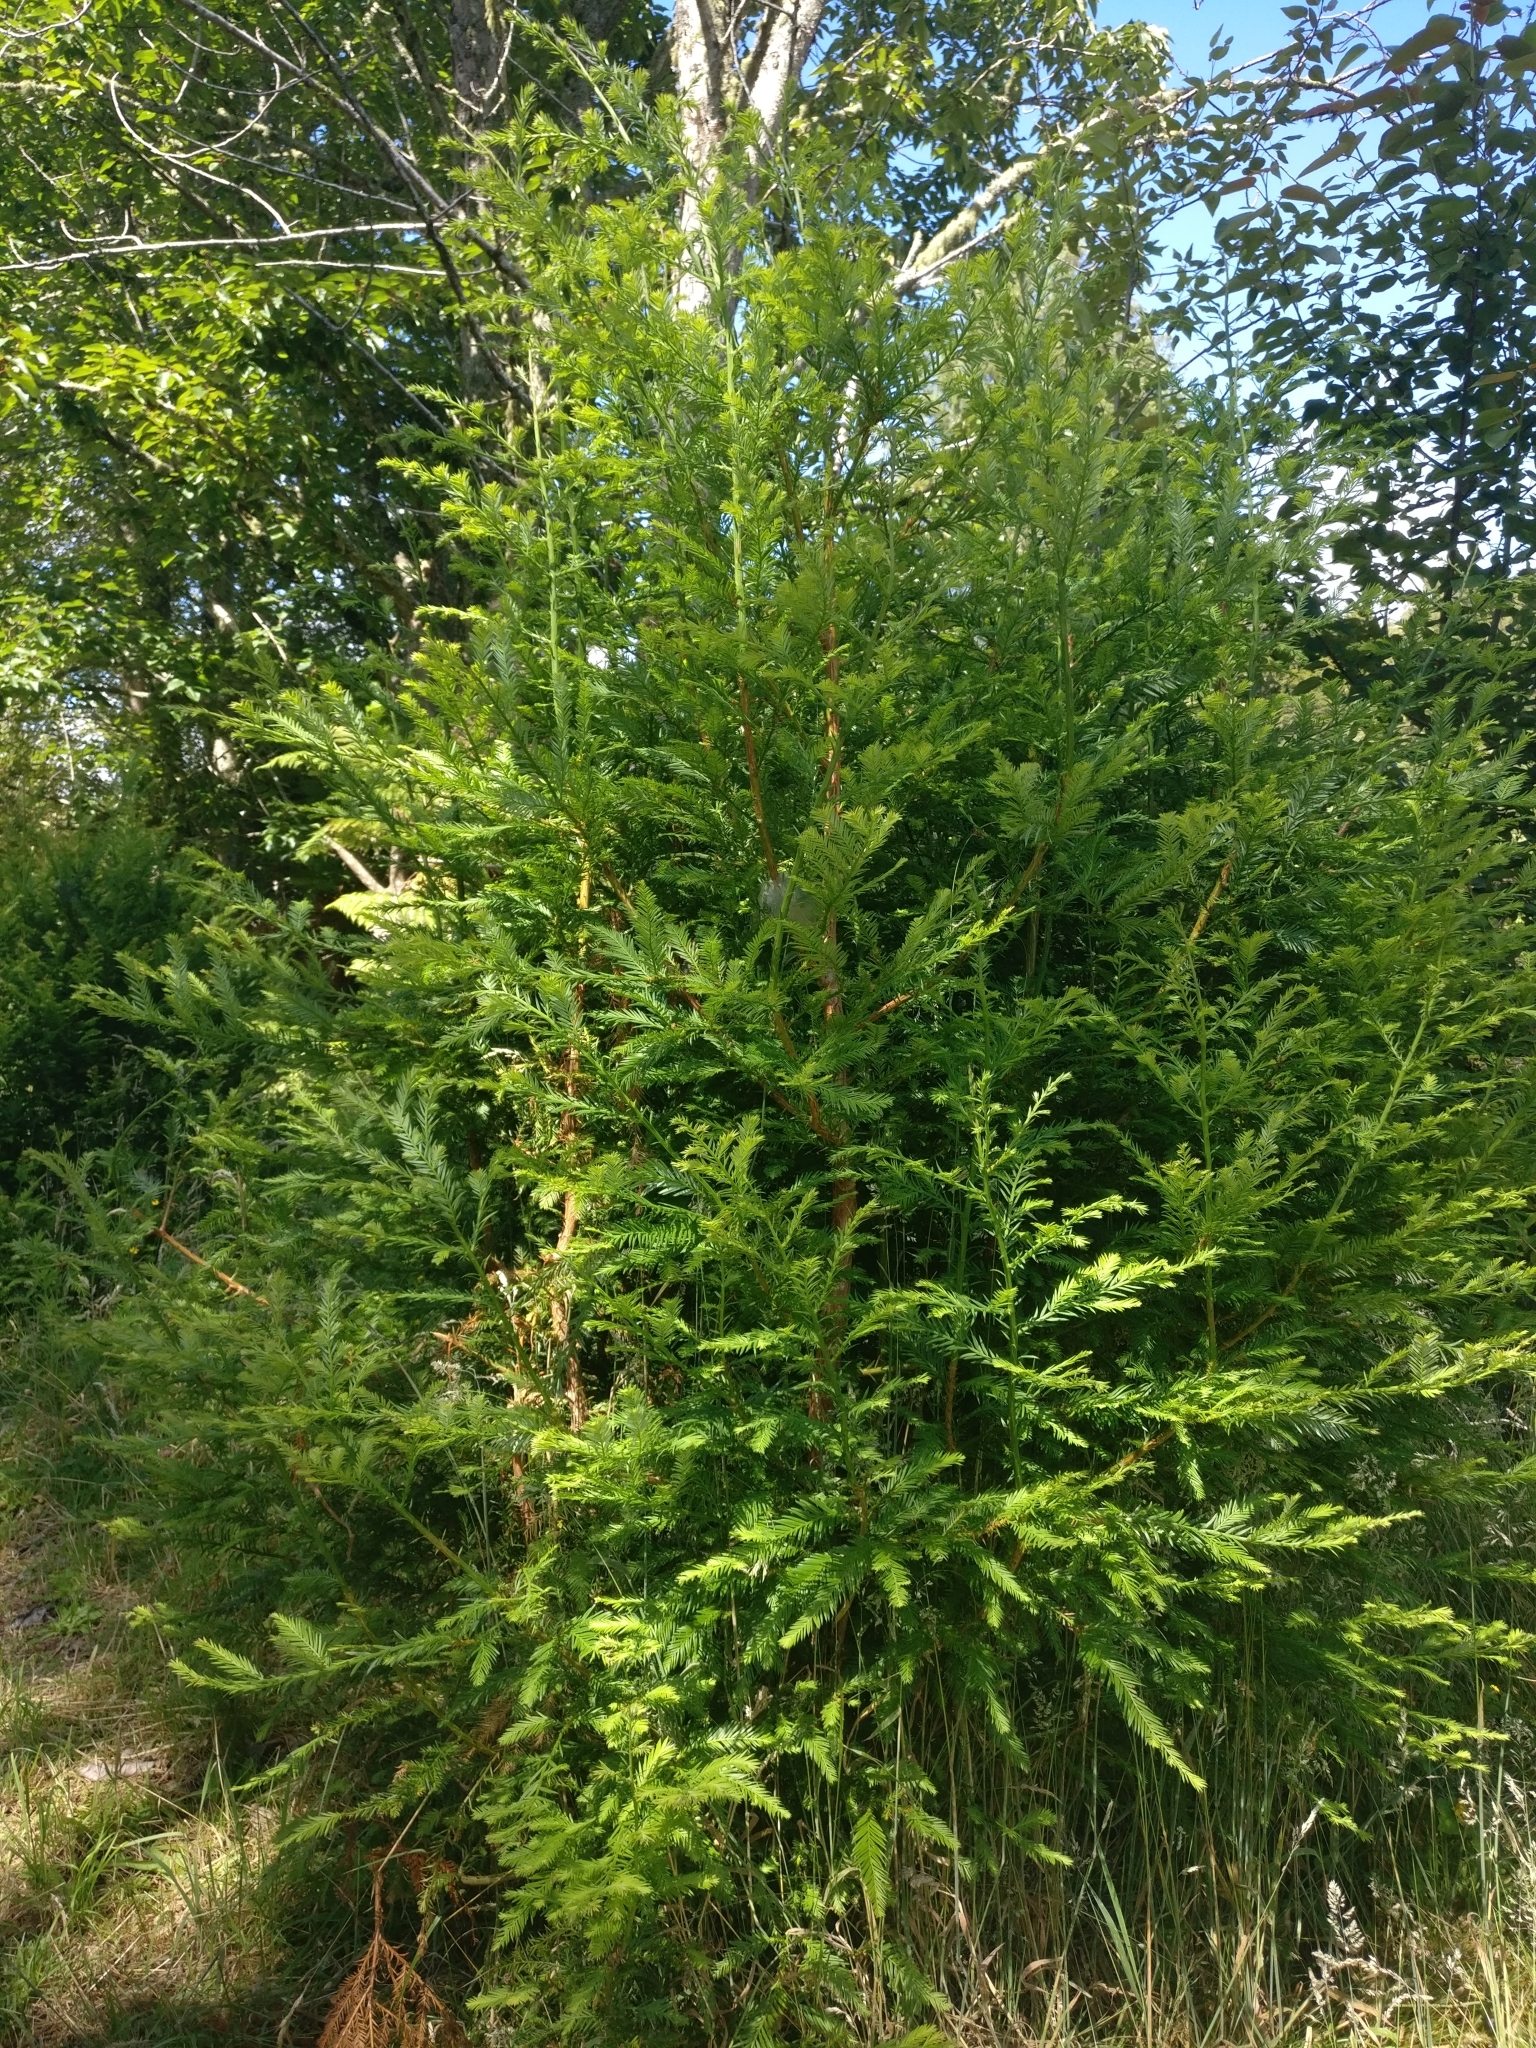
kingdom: Plantae
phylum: Tracheophyta
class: Pinopsida
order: Pinales
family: Cupressaceae
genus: Sequoia
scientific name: Sequoia sempervirens
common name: Coast redwood
